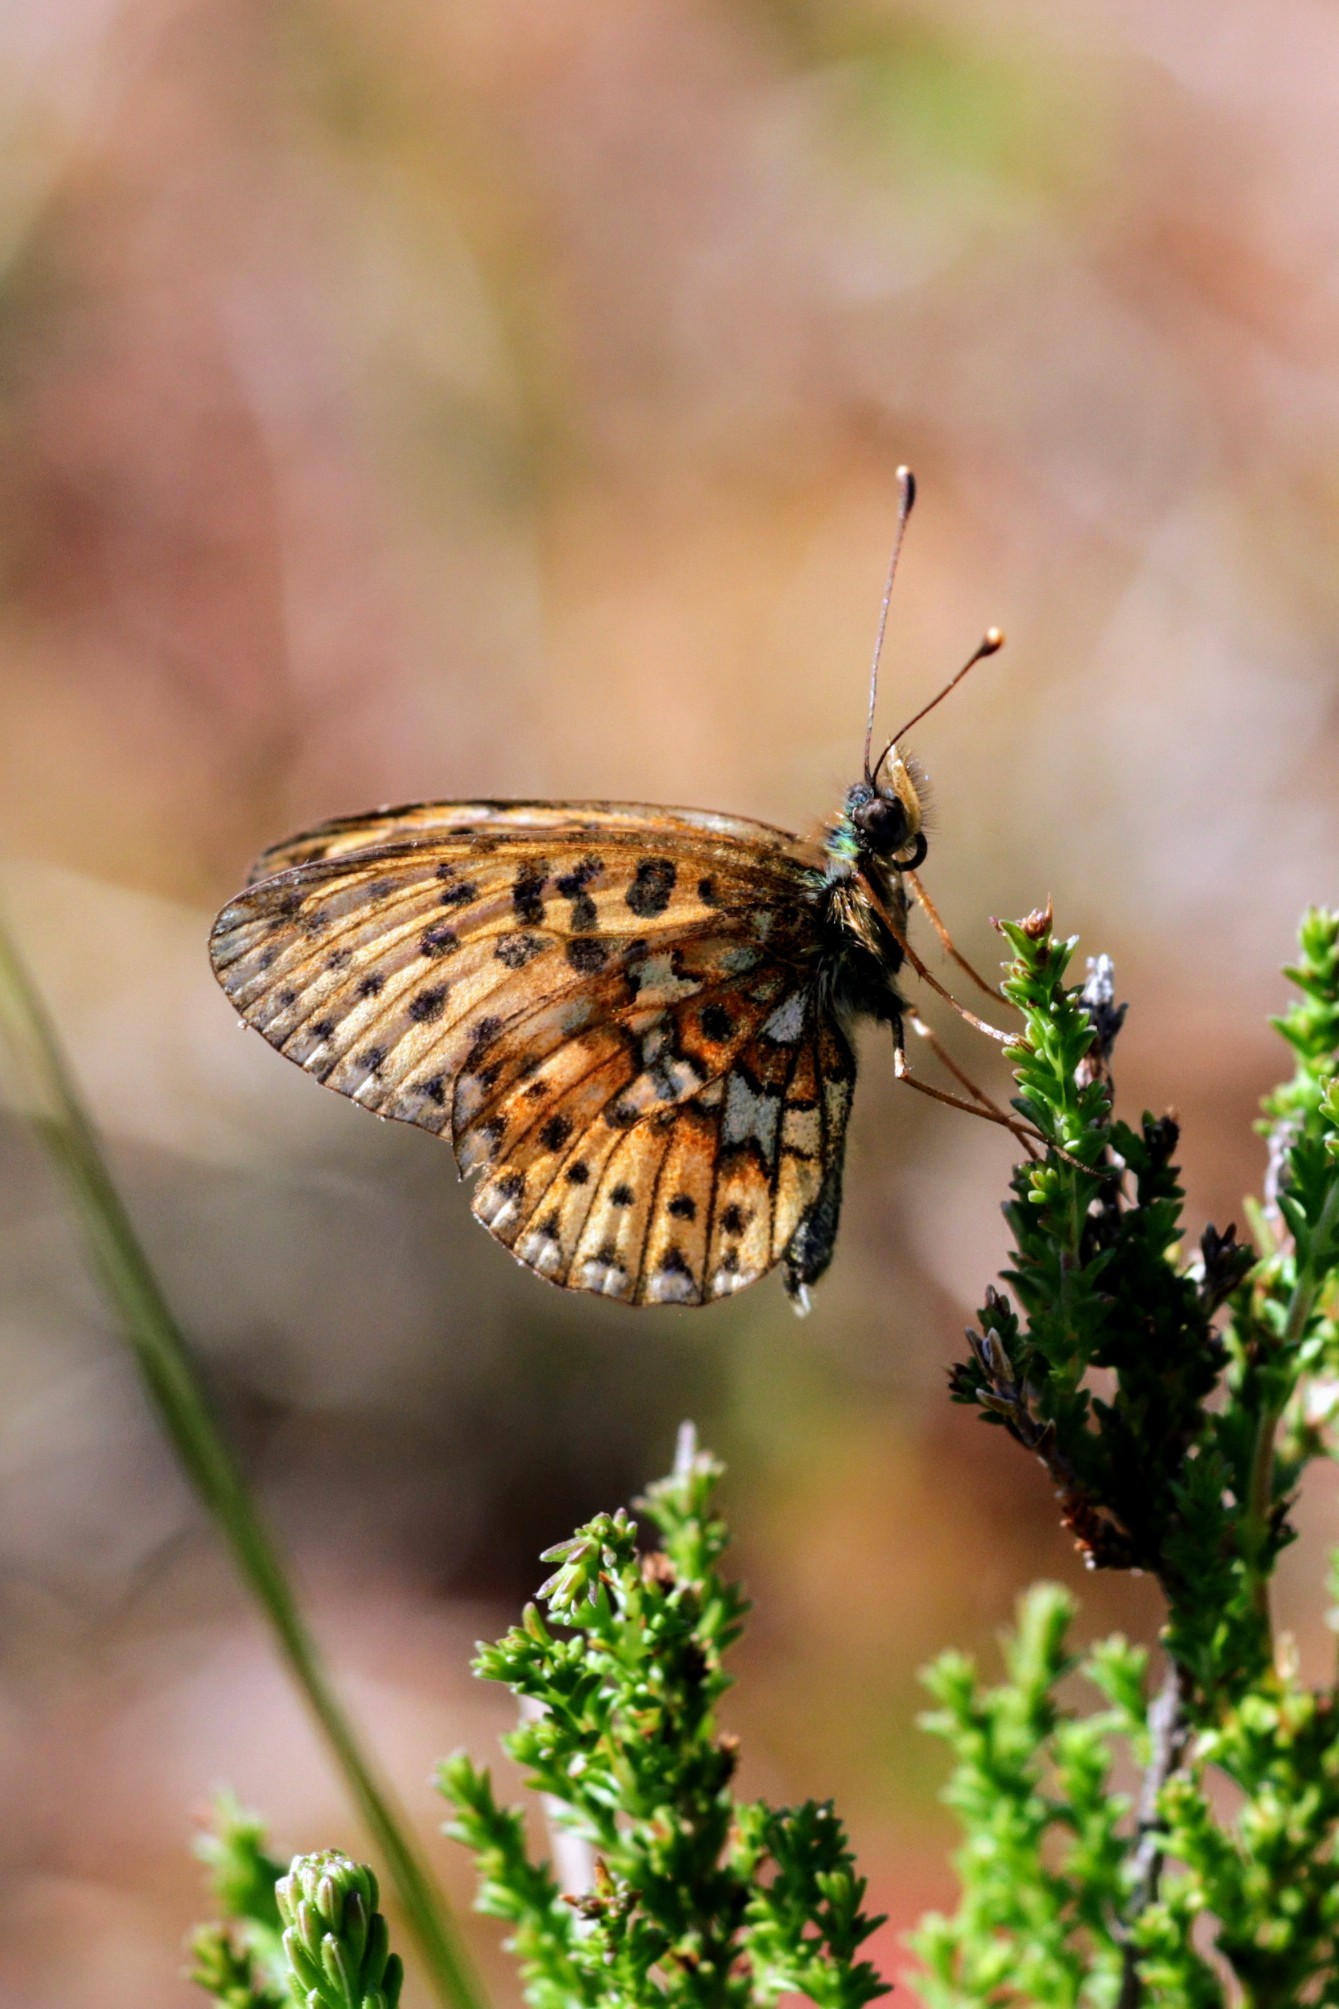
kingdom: Animalia
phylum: Arthropoda
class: Insecta
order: Lepidoptera
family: Nymphalidae
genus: Clossiana
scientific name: Clossiana euphrosyne
